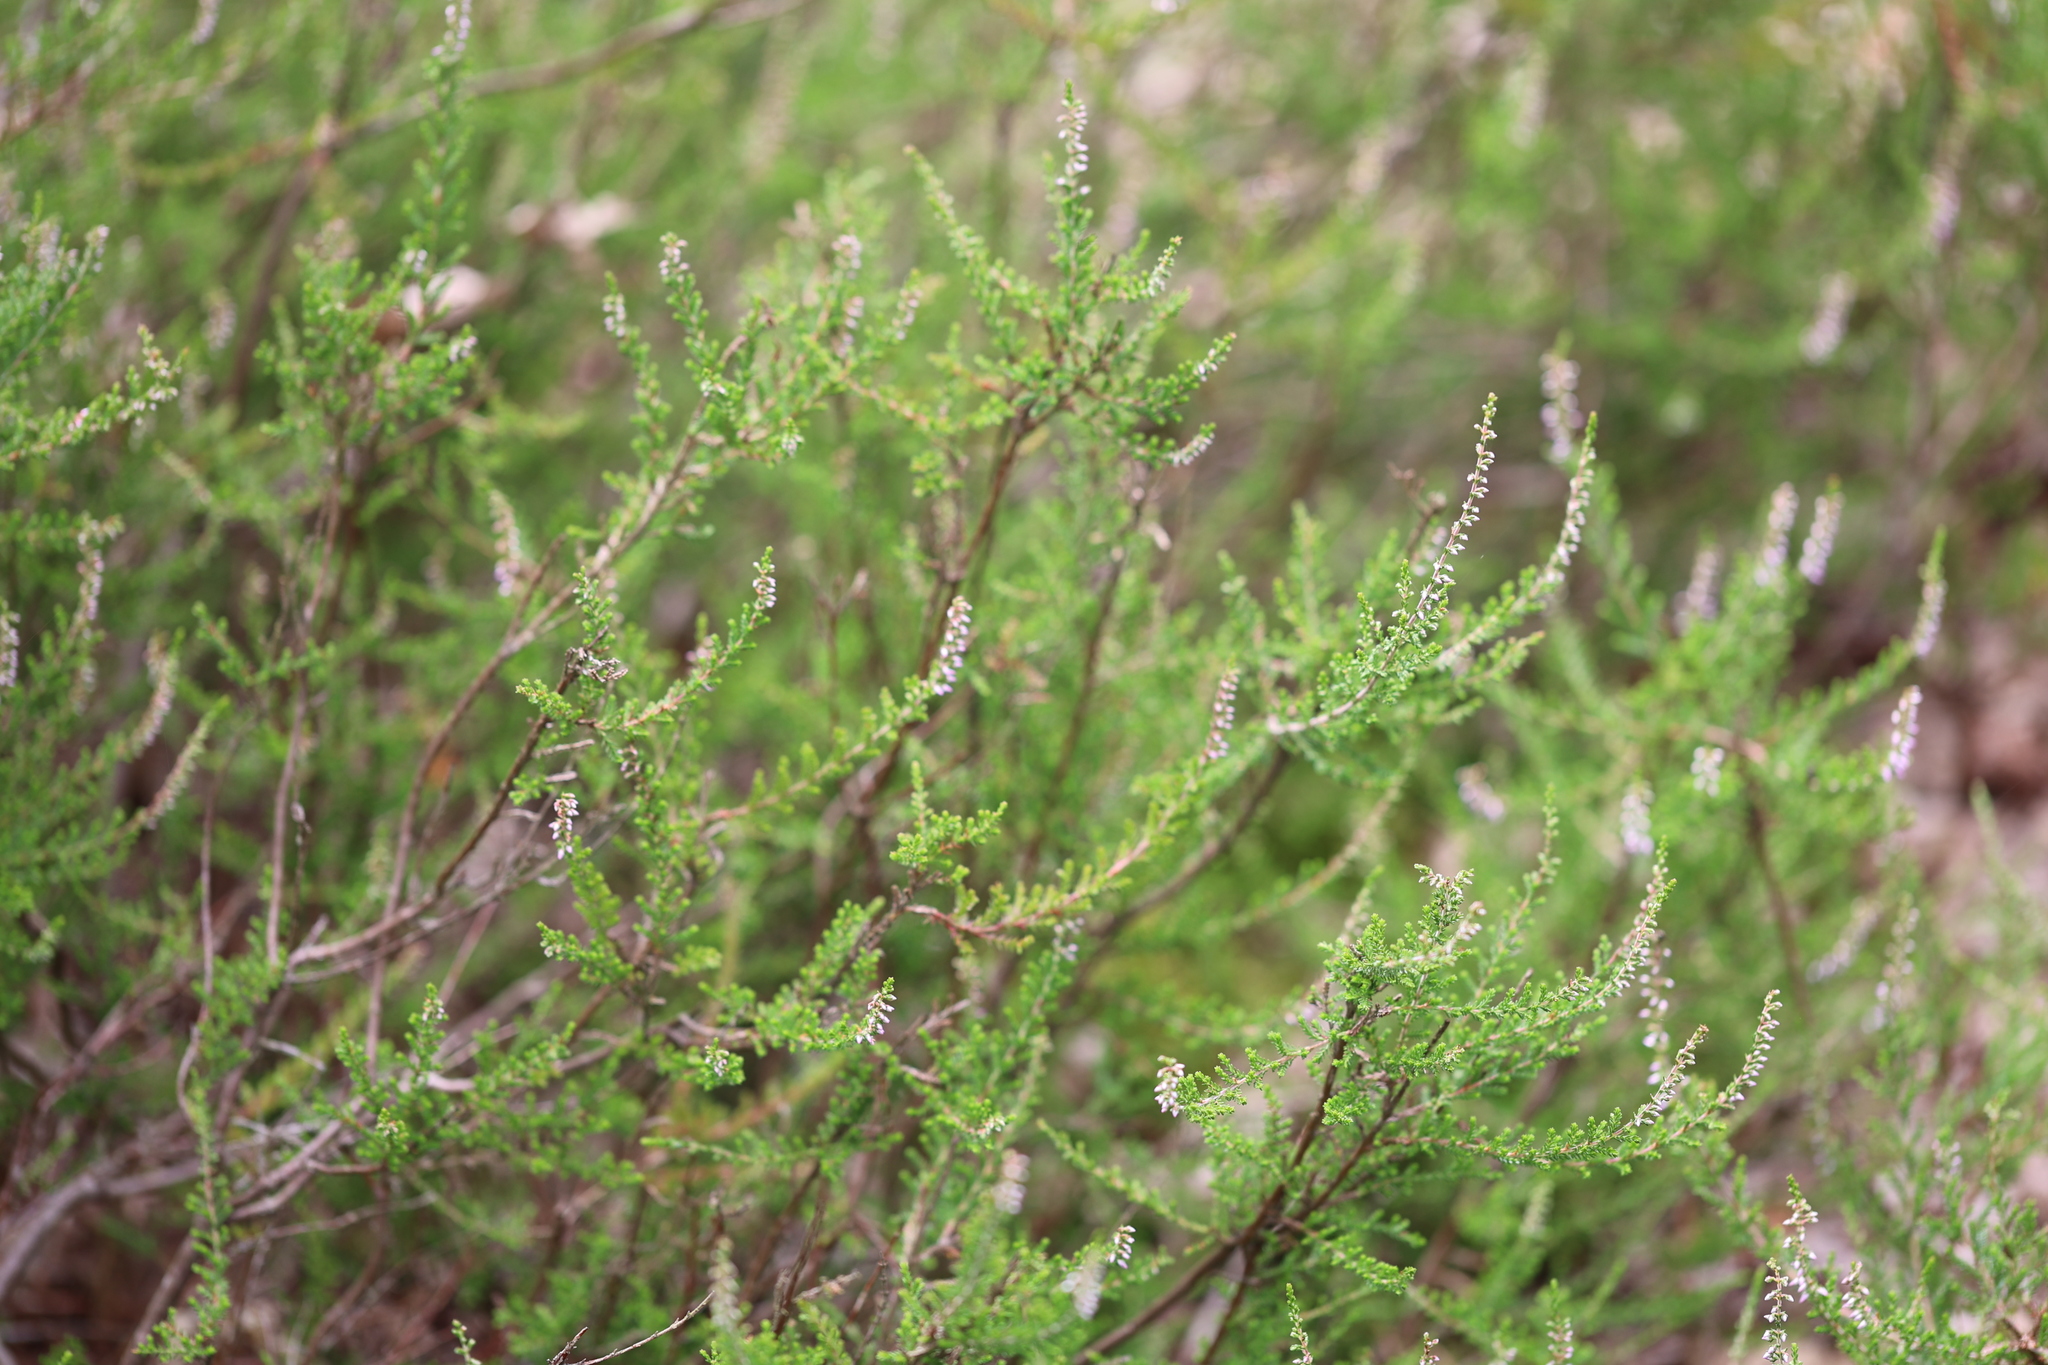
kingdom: Plantae
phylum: Tracheophyta
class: Magnoliopsida
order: Ericales
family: Ericaceae
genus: Calluna
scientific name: Calluna vulgaris
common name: Heather
